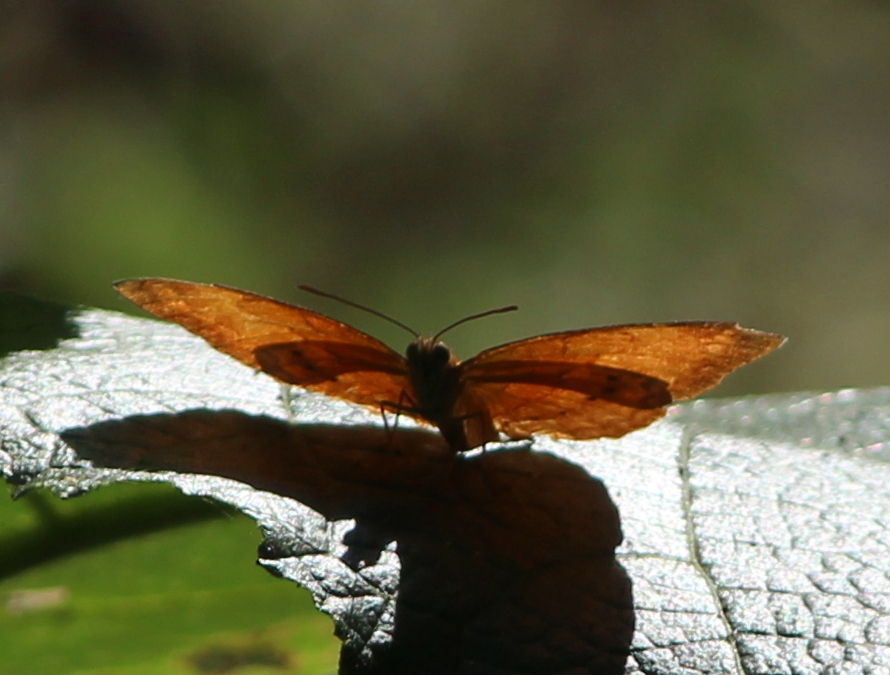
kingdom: Animalia
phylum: Arthropoda
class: Insecta
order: Lepidoptera
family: Nymphalidae
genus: Cirrochroa
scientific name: Cirrochroa thais
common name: Tamil yeoman
